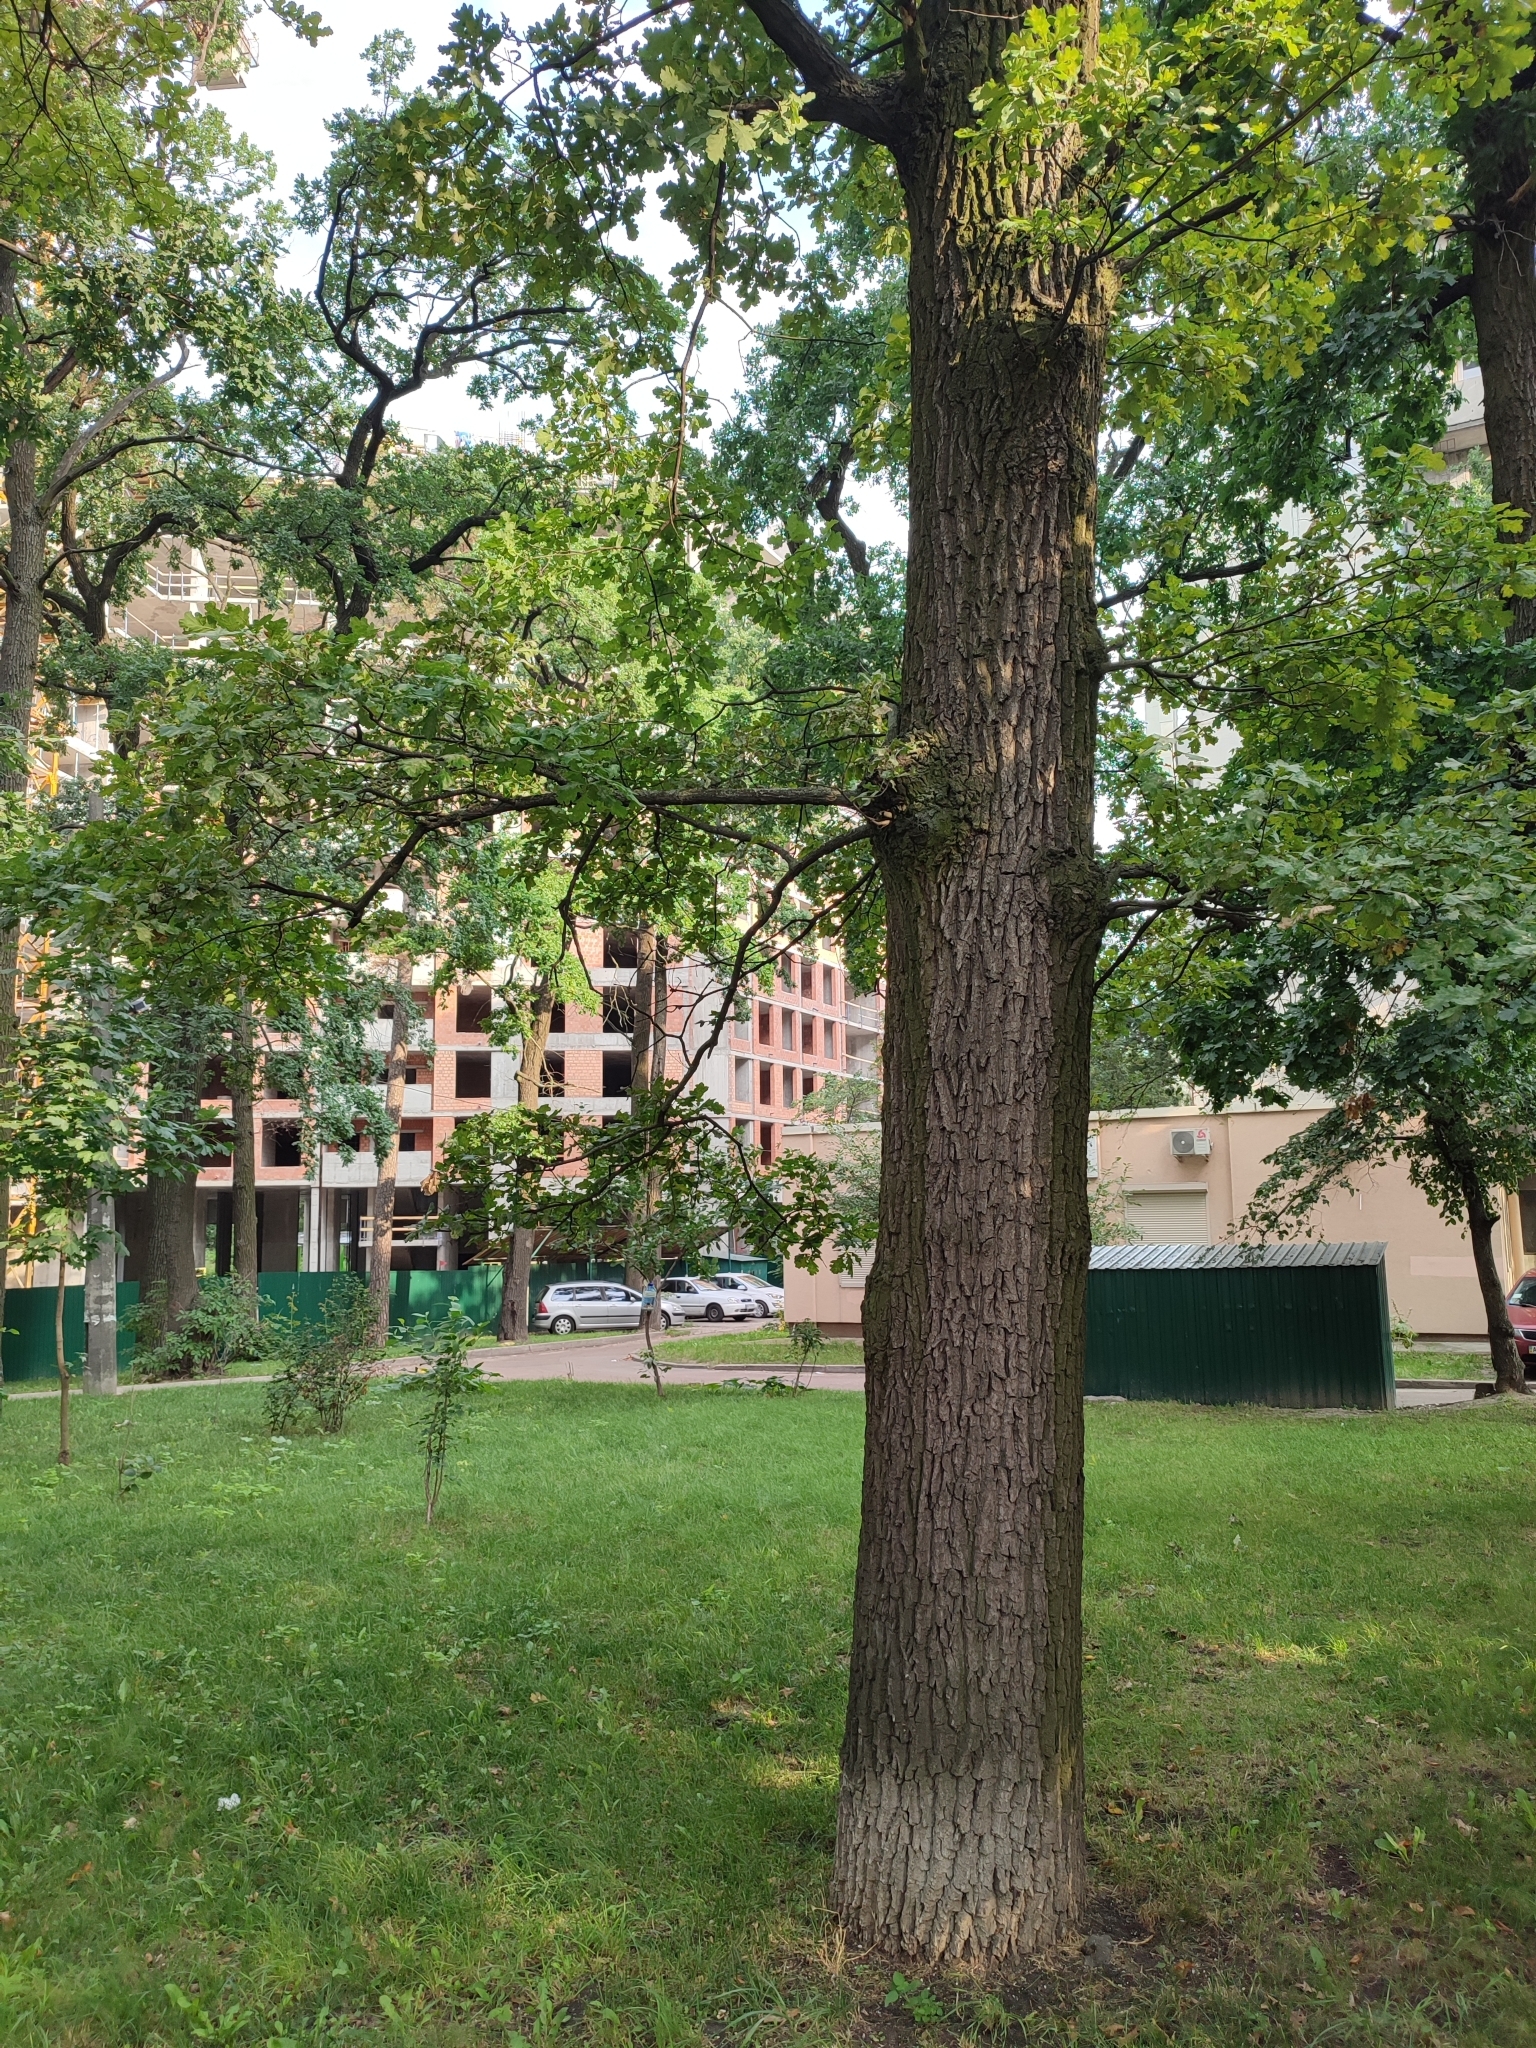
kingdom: Plantae
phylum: Tracheophyta
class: Magnoliopsida
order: Fagales
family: Fagaceae
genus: Quercus
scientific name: Quercus robur
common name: Pedunculate oak
